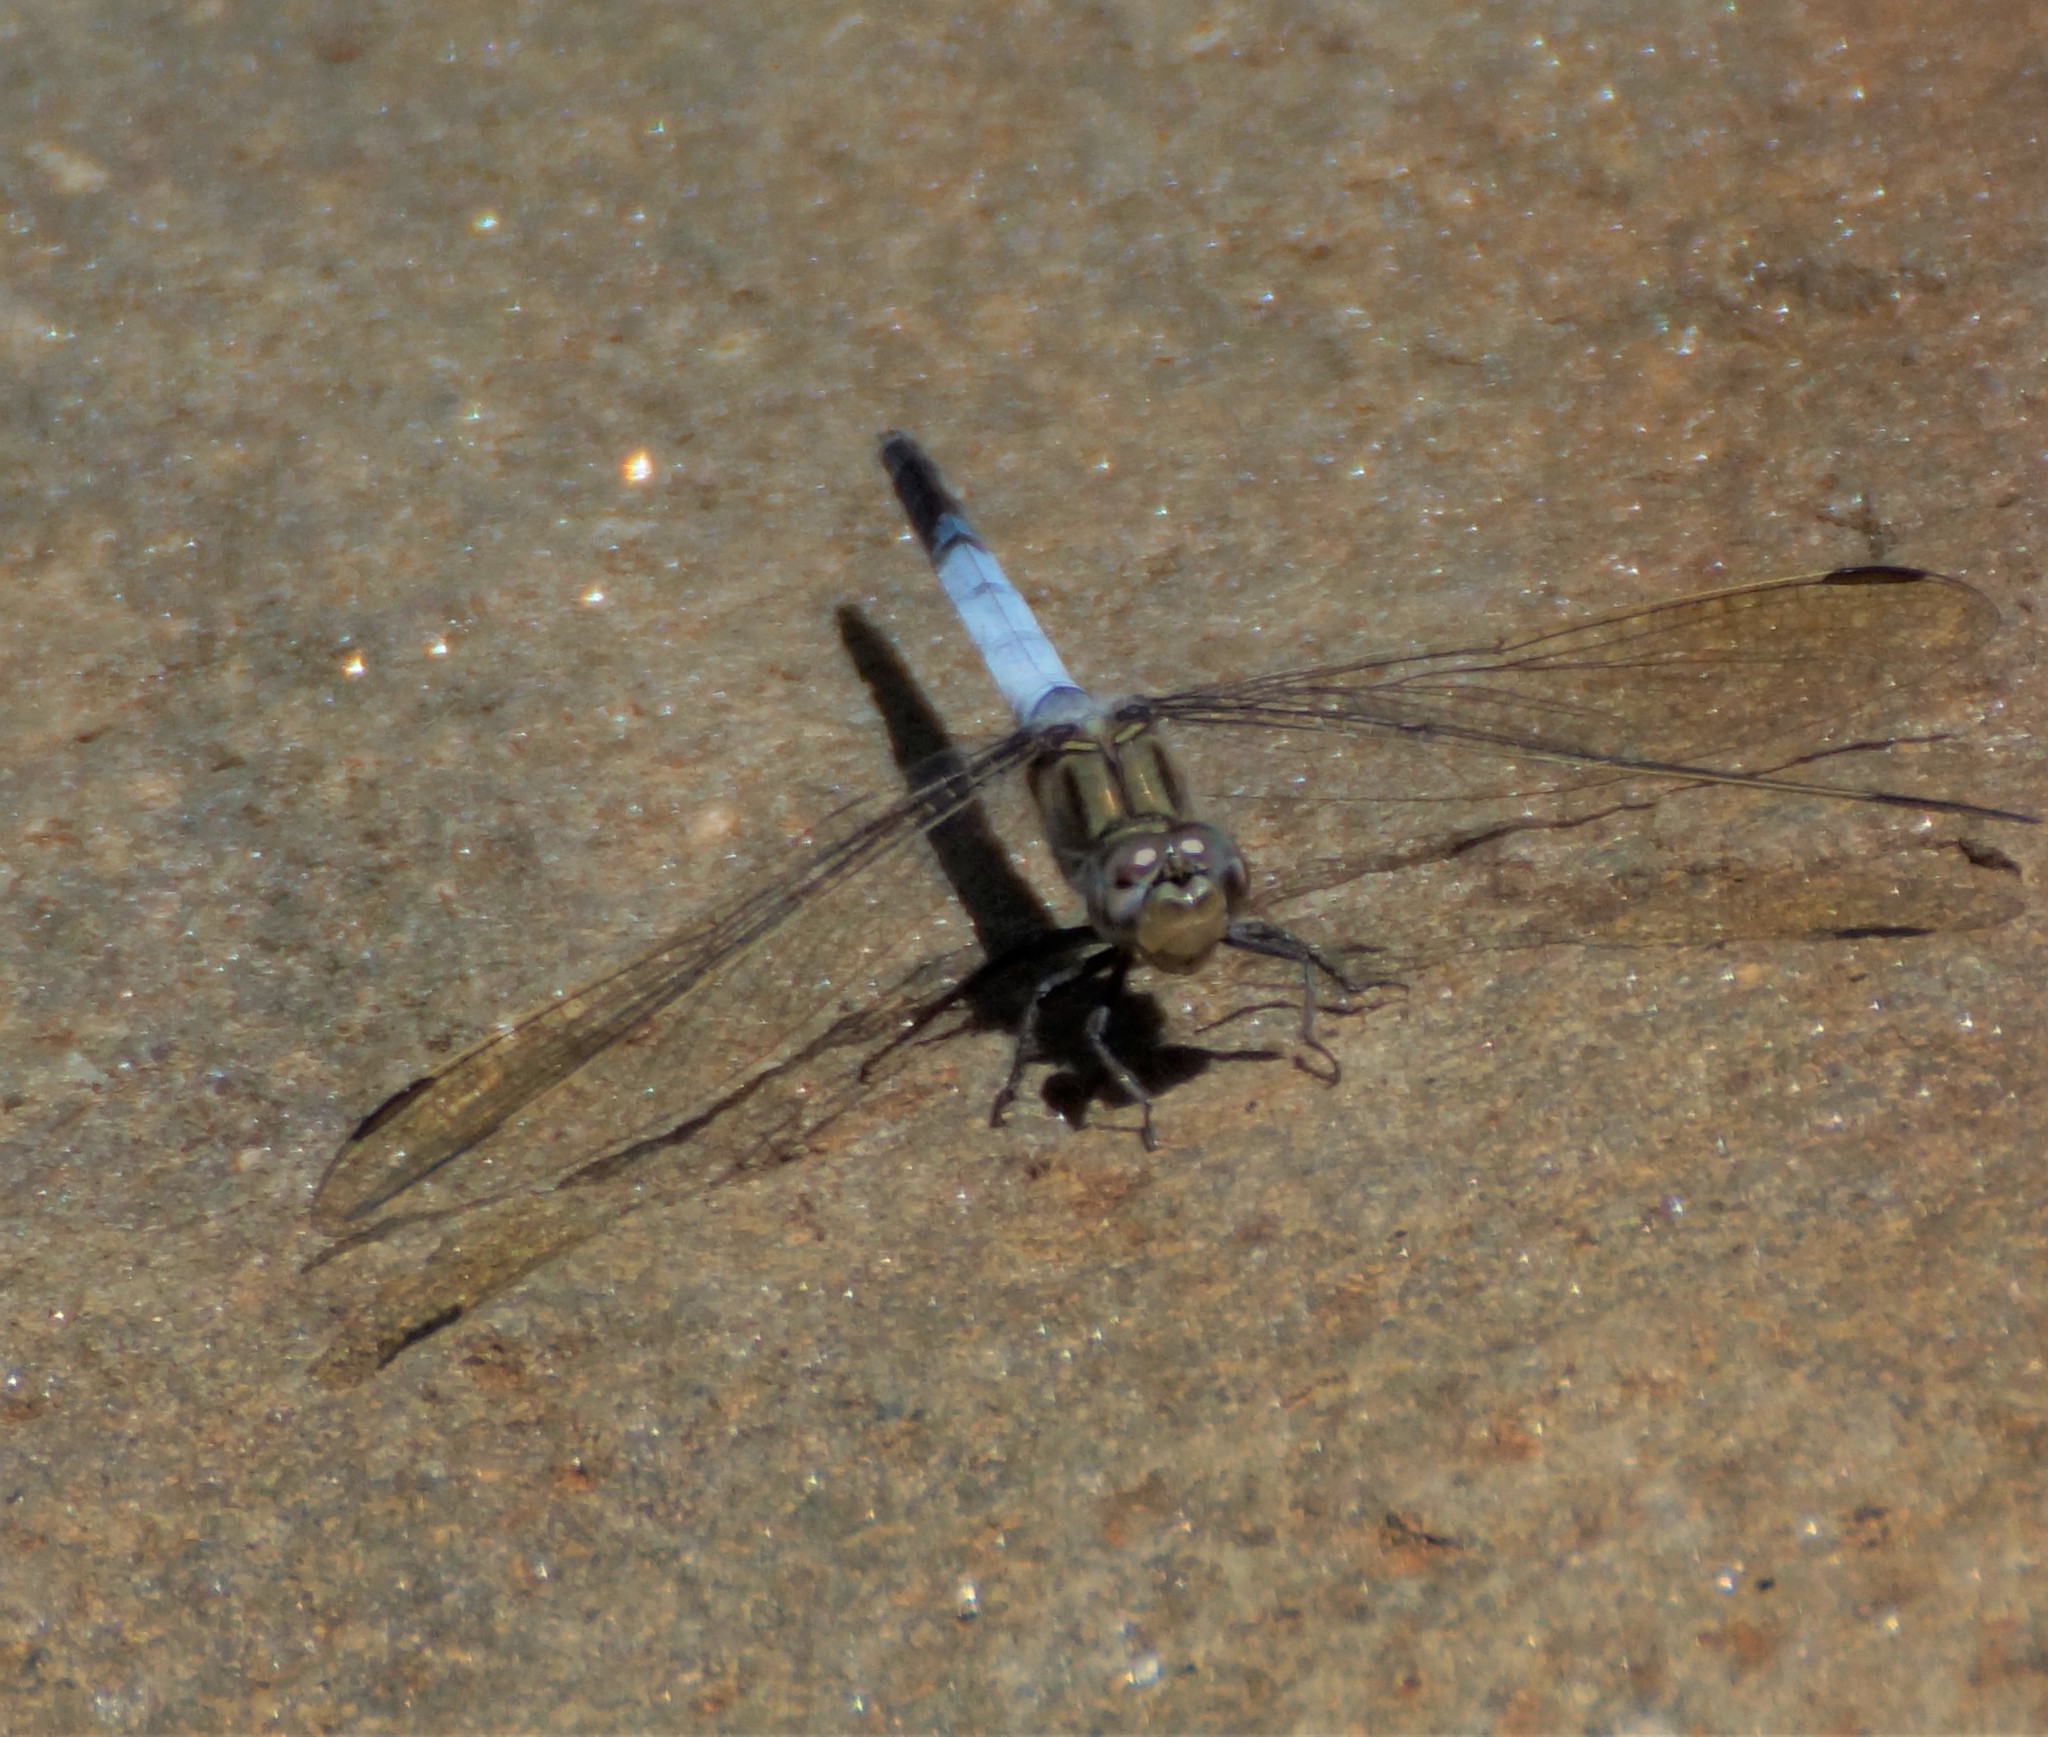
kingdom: Animalia
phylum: Arthropoda
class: Insecta
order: Odonata
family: Libellulidae
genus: Orthetrum
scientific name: Orthetrum caledonicum
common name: Blue skimmer
